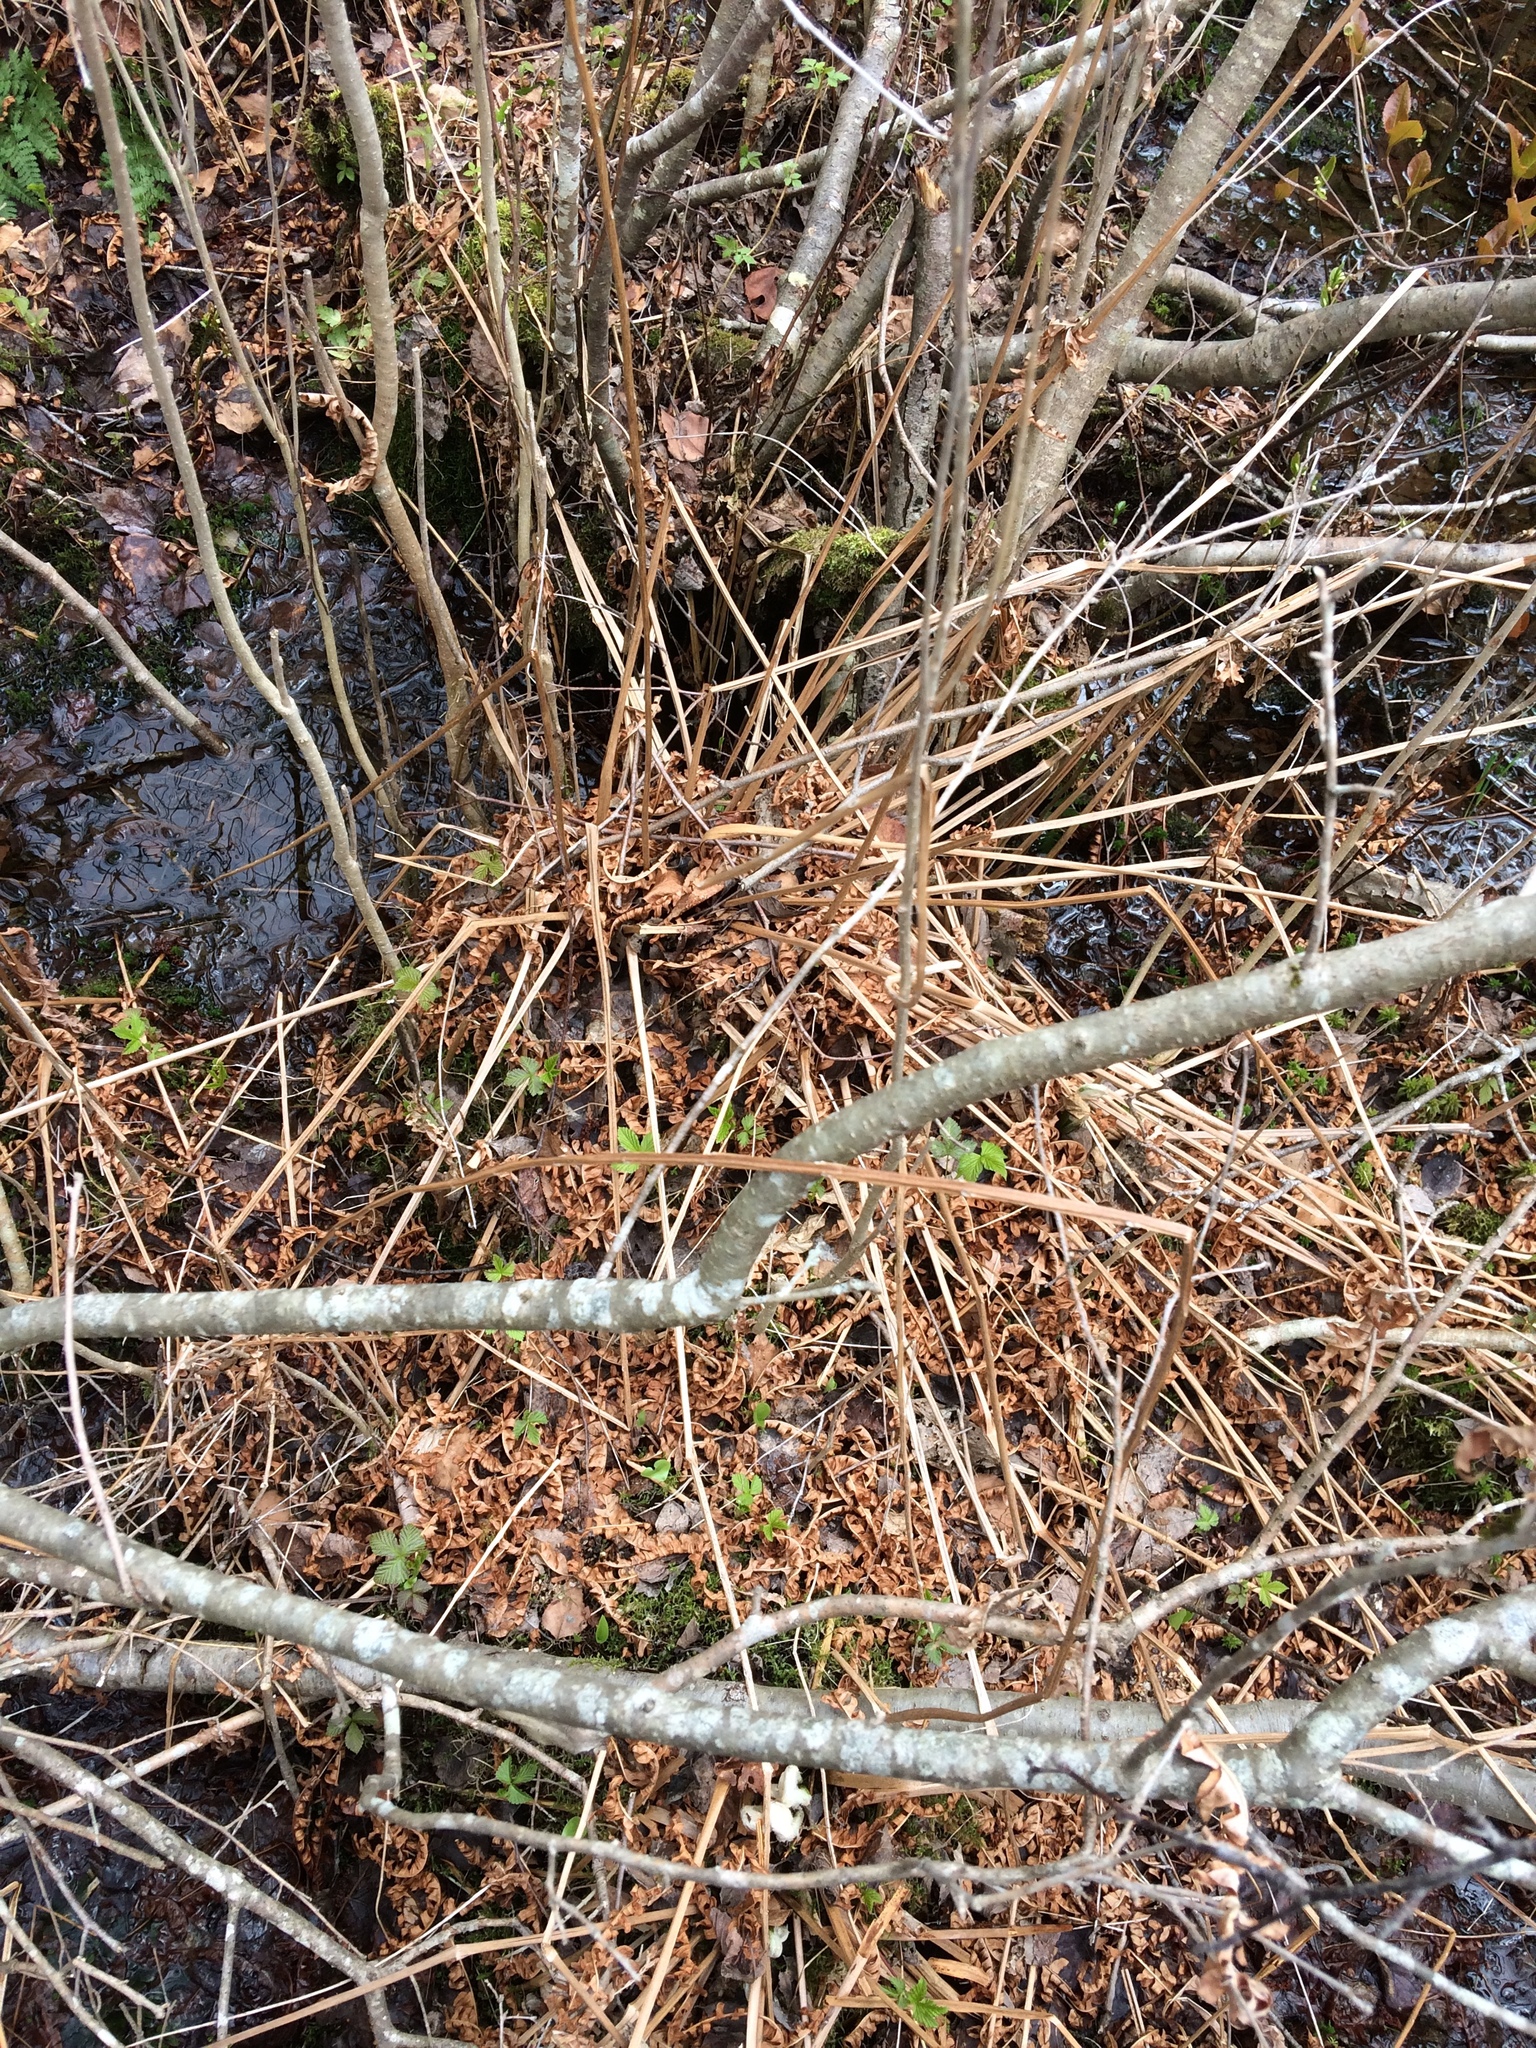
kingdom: Plantae
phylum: Tracheophyta
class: Polypodiopsida
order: Osmundales
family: Osmundaceae
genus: Osmundastrum
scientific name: Osmundastrum cinnamomeum
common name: Cinnamon fern
